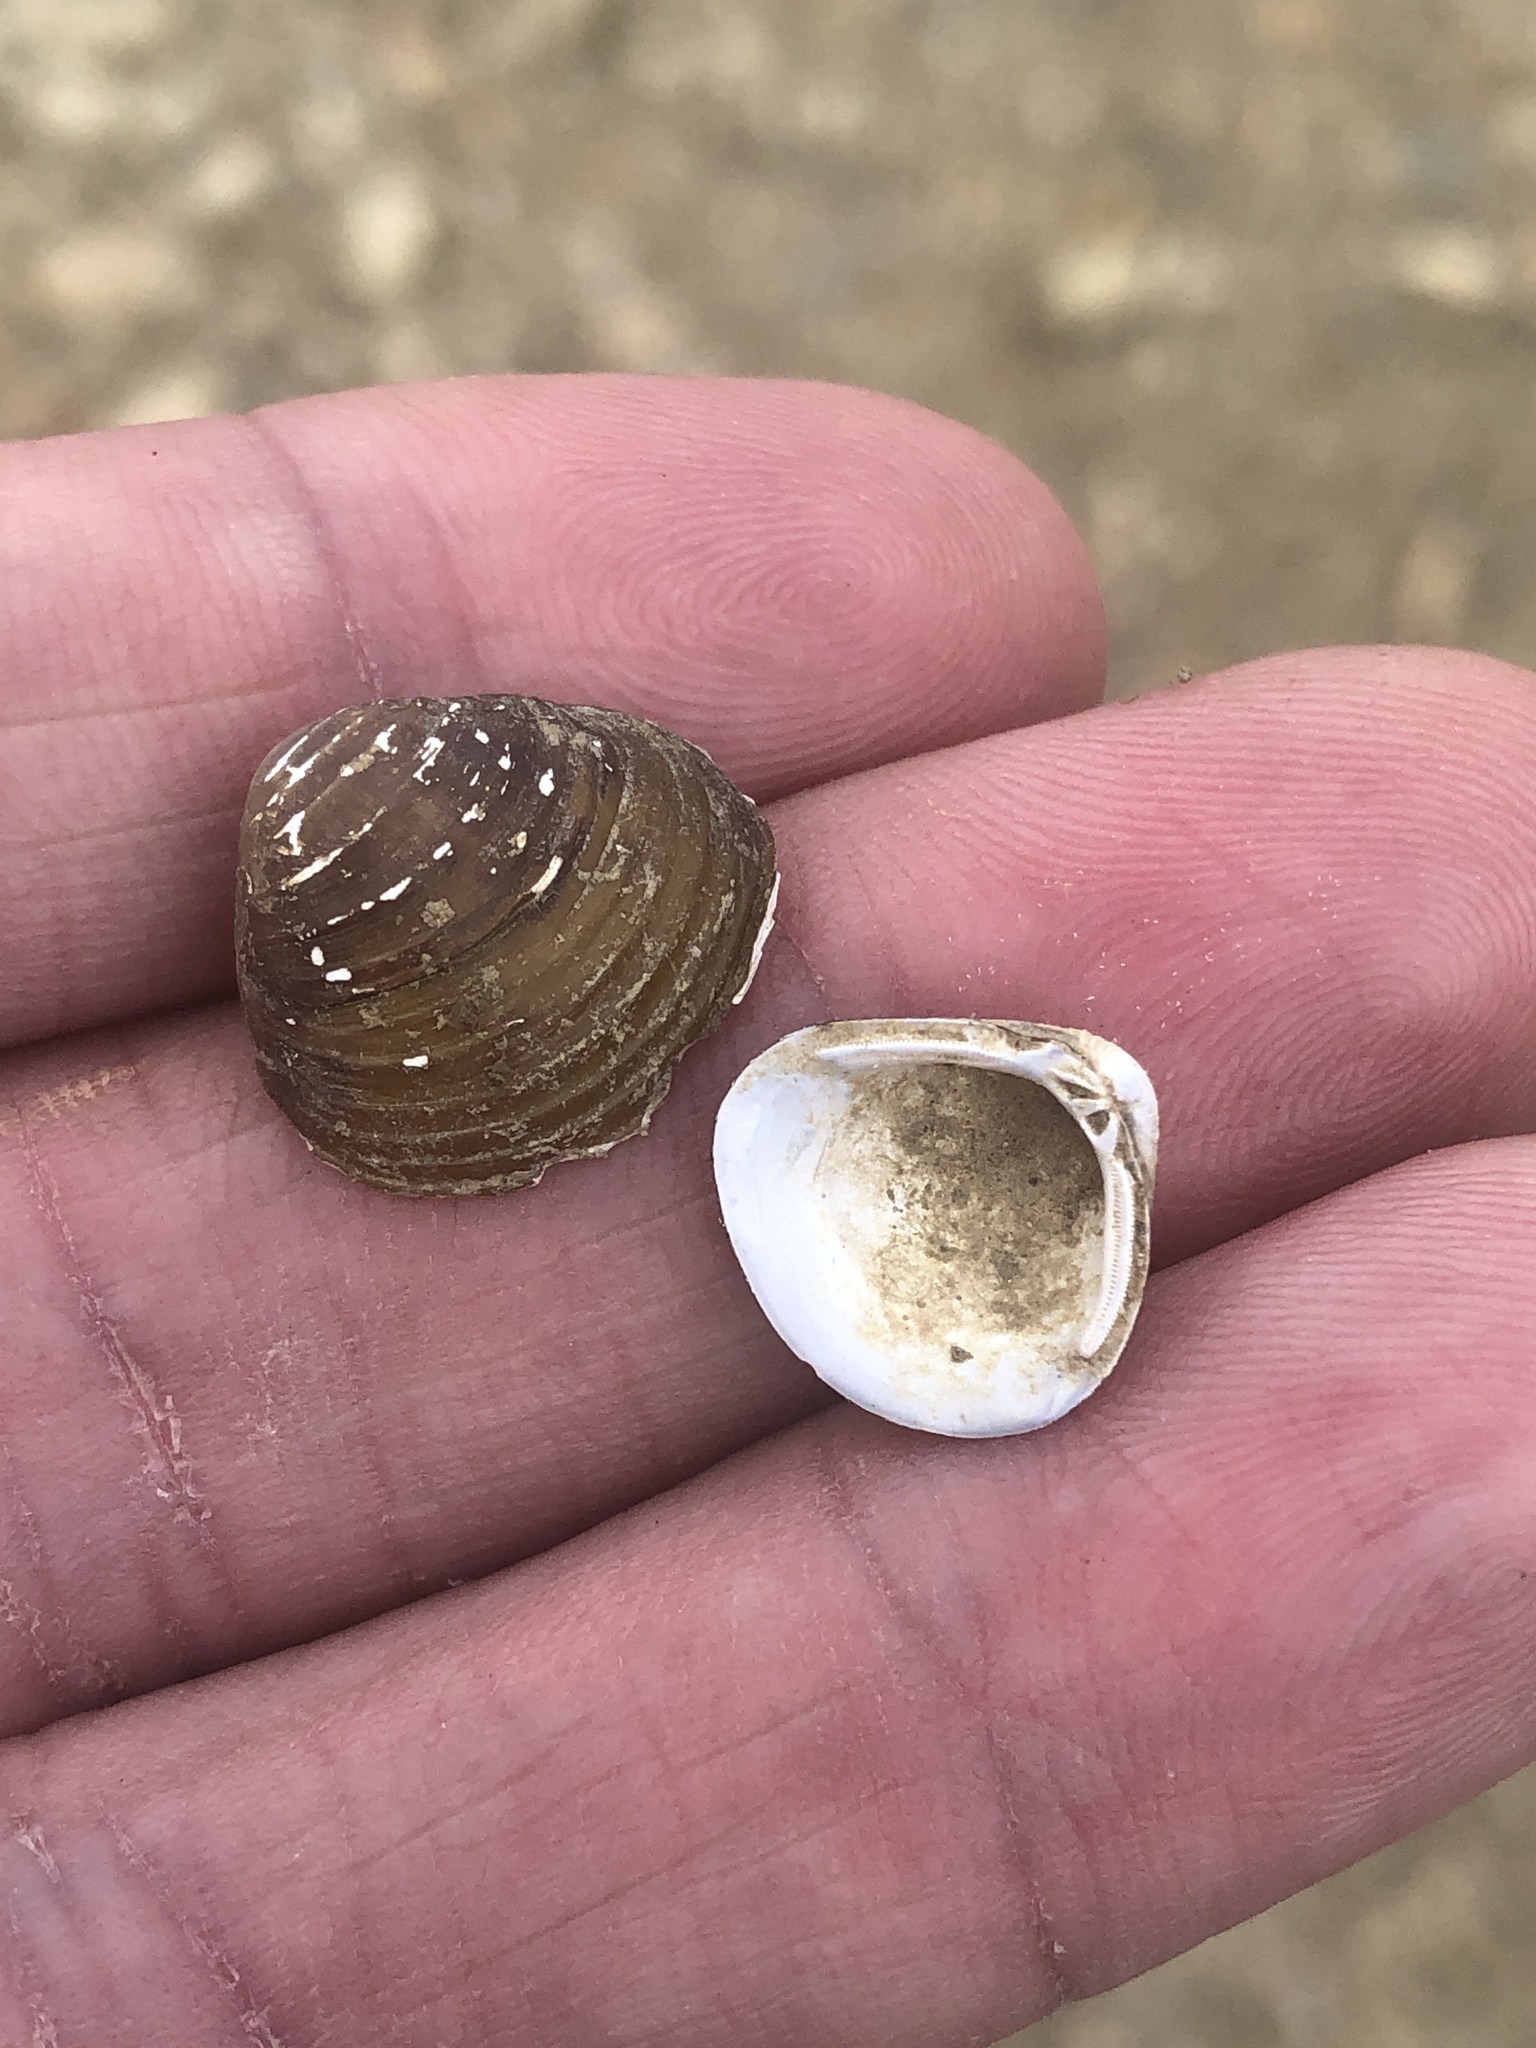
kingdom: Animalia
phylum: Mollusca
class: Bivalvia
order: Venerida
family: Cyrenidae
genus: Corbicula
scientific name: Corbicula fluminea
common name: Asian clam
